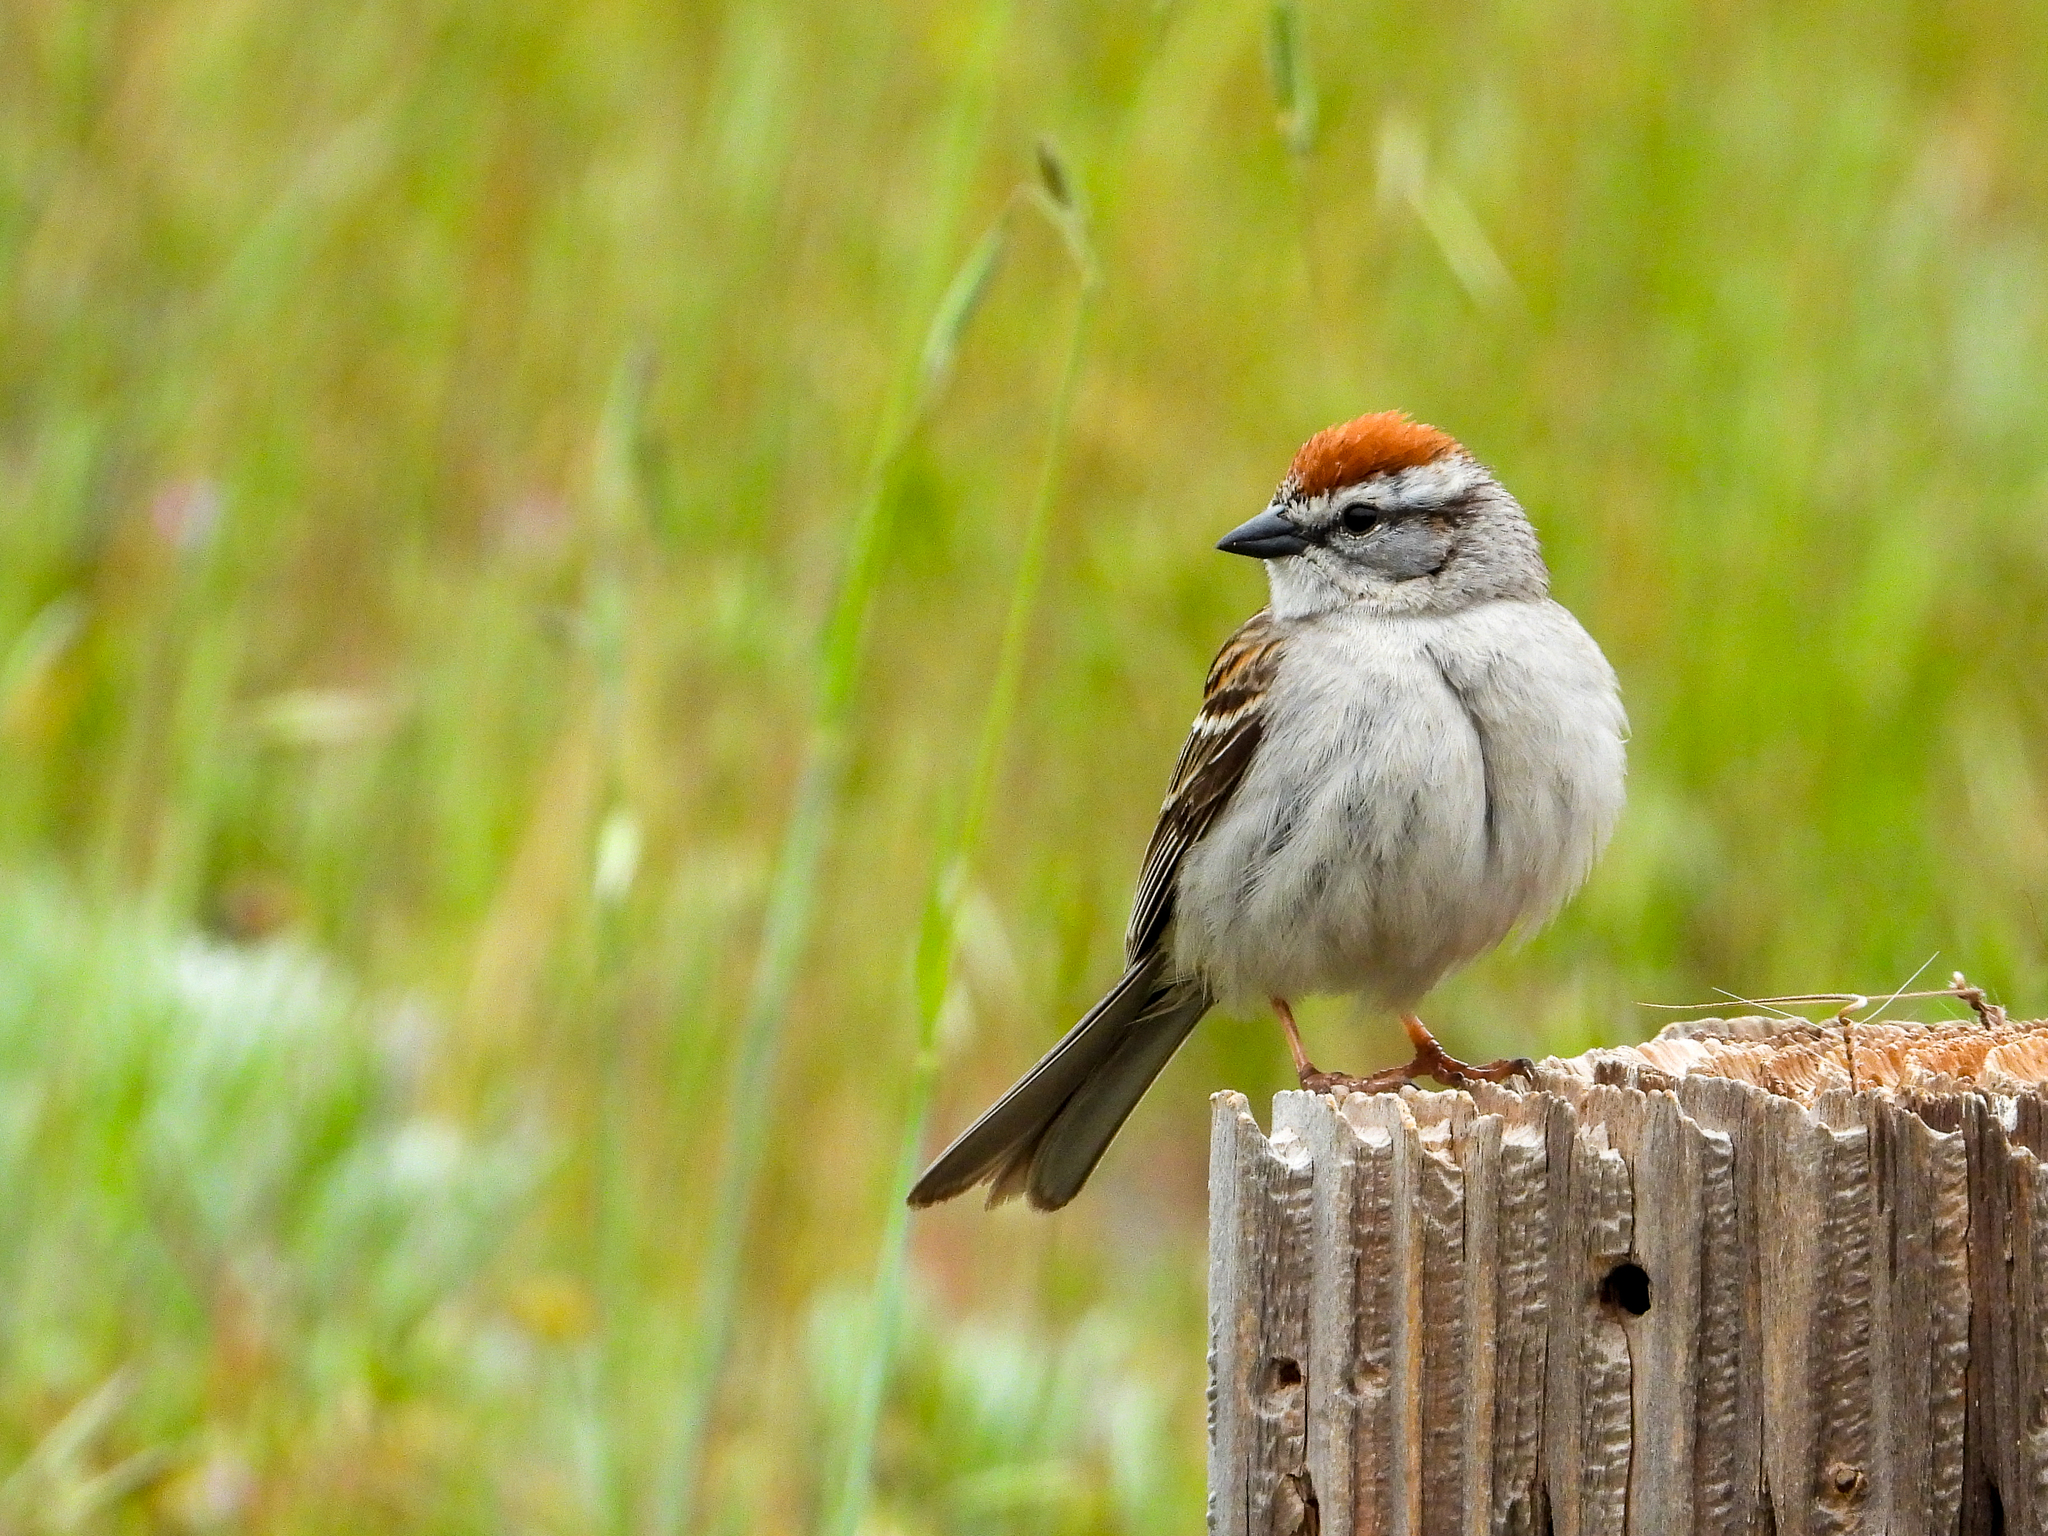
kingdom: Animalia
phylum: Chordata
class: Aves
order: Passeriformes
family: Passerellidae
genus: Spizella
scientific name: Spizella passerina
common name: Chipping sparrow
